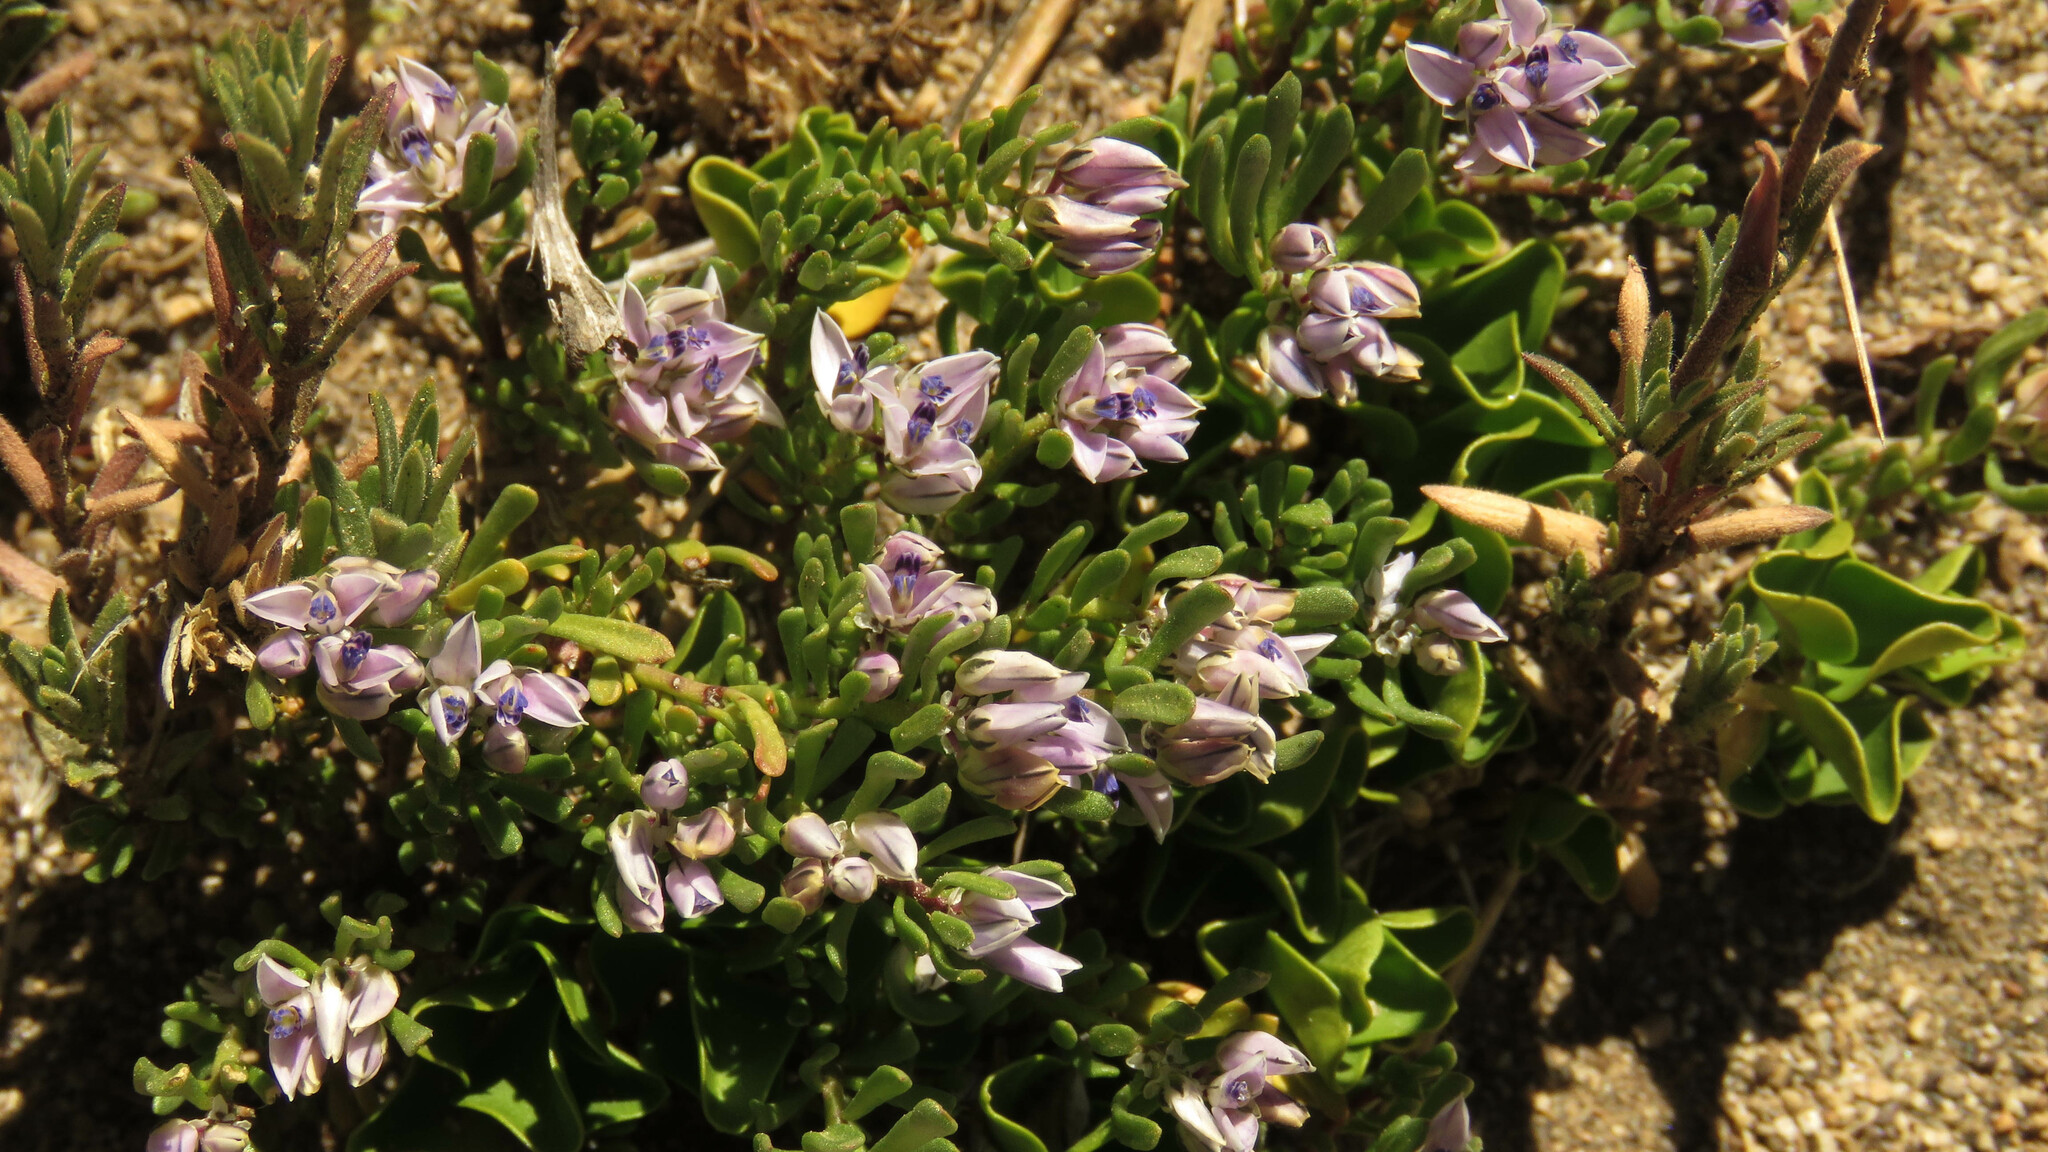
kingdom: Plantae
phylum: Tracheophyta
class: Magnoliopsida
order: Fabales
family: Polygalaceae
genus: Polygala
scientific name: Polygala salasiana
